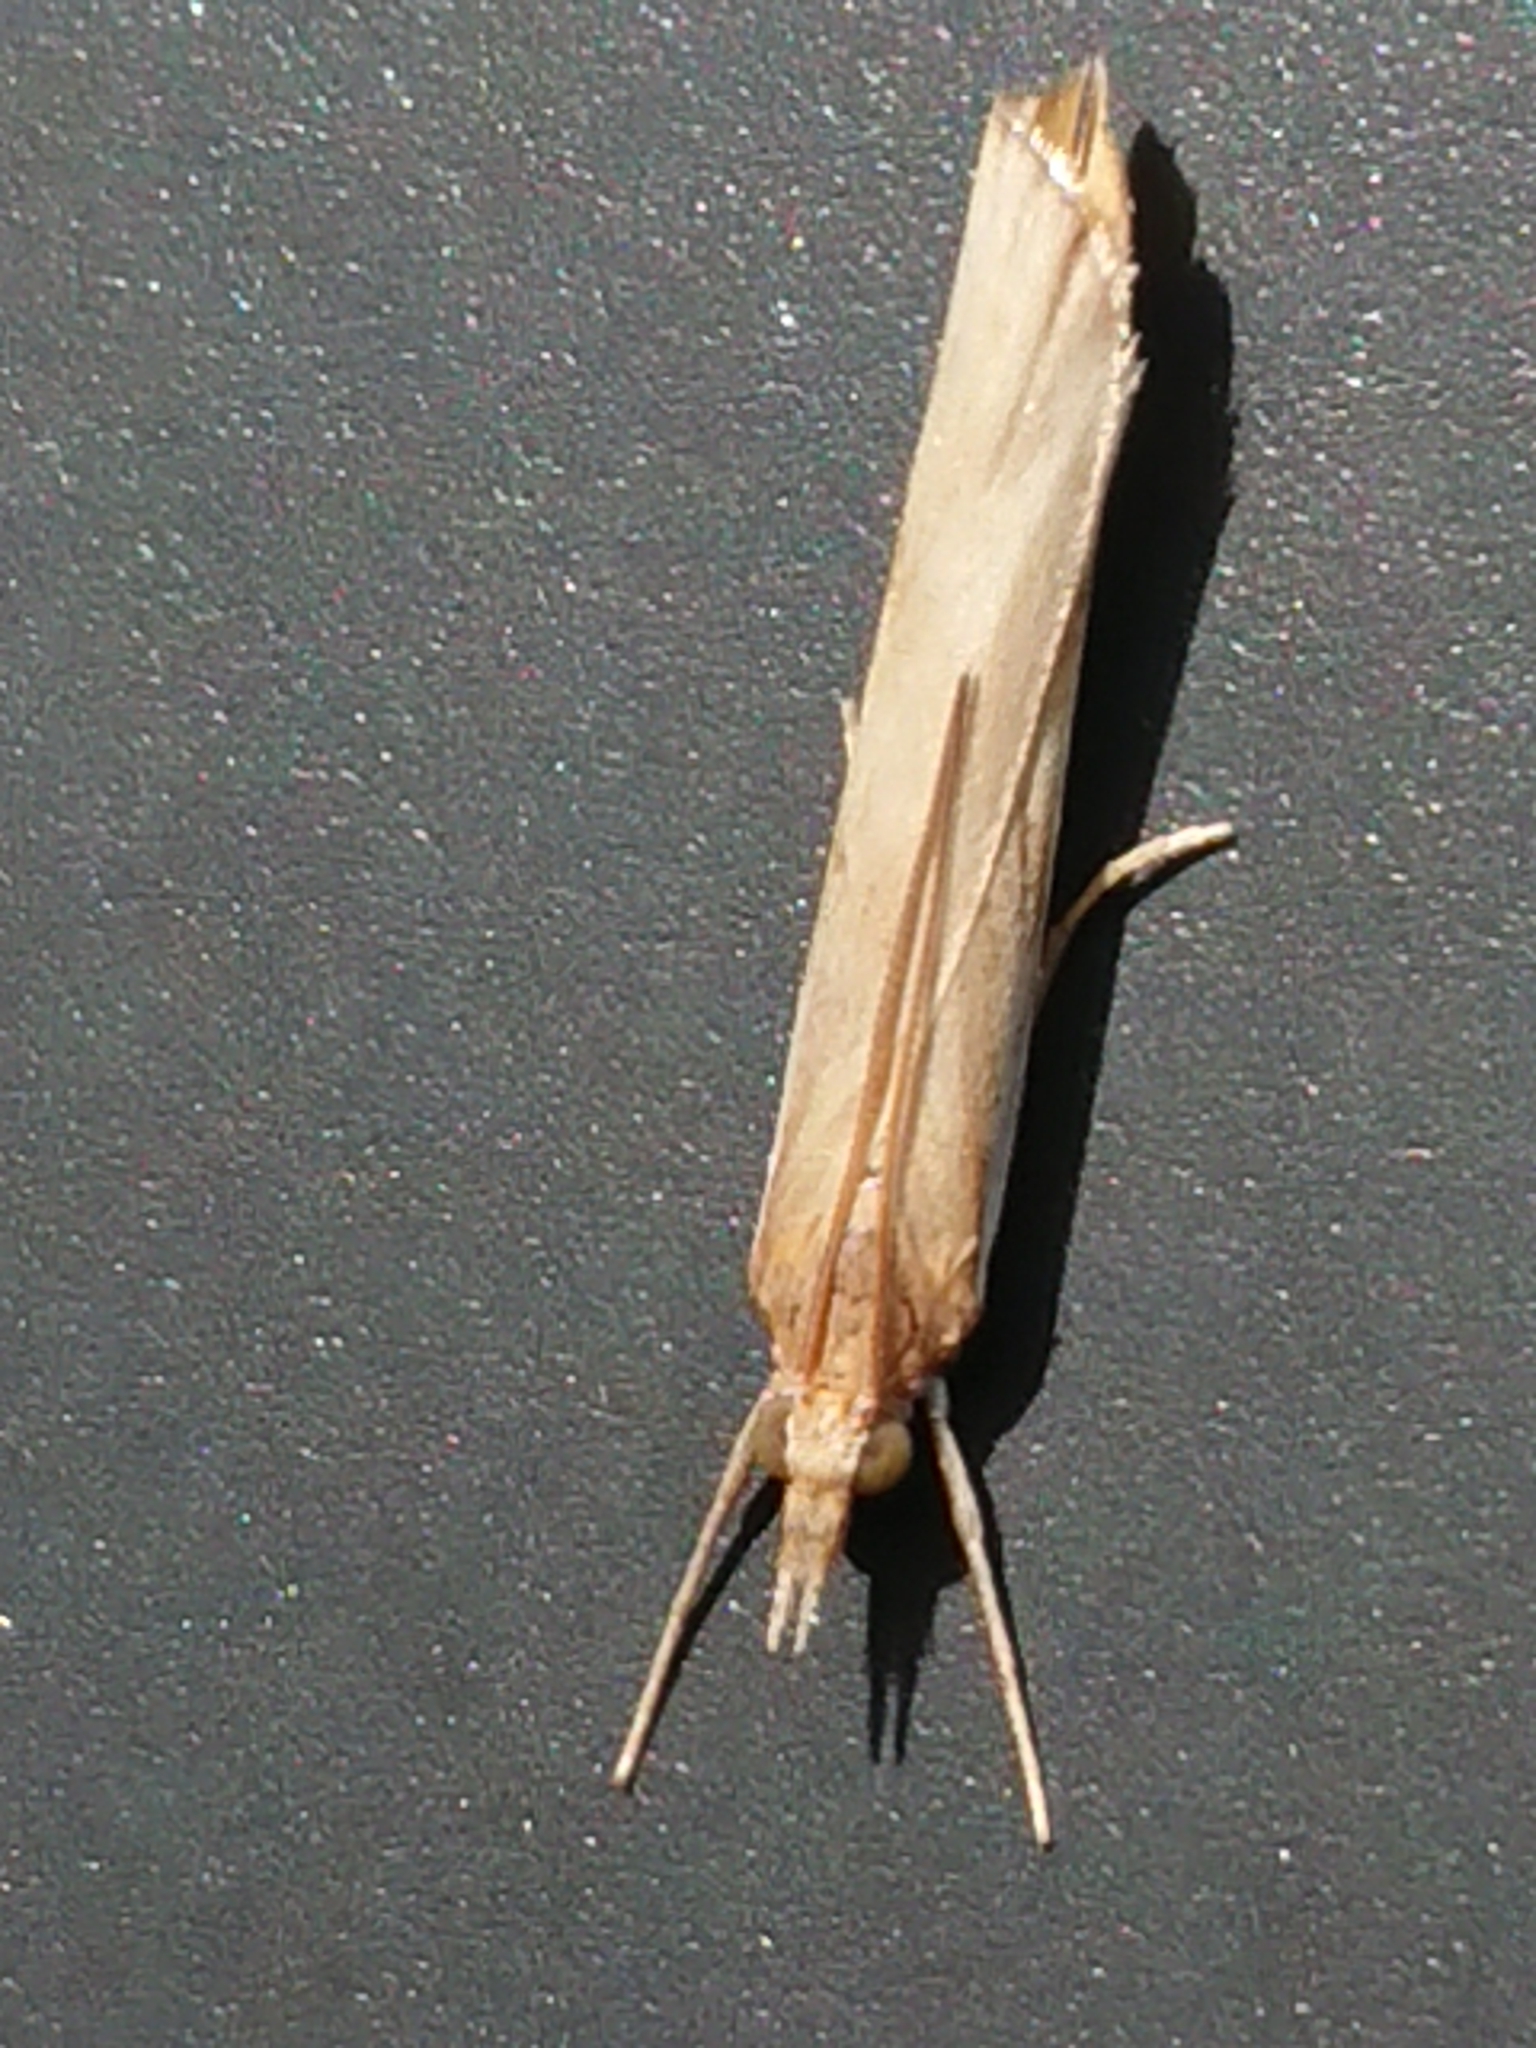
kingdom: Animalia
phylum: Arthropoda
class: Insecta
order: Lepidoptera
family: Crambidae
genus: Orocrambus
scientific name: Orocrambus flexuosellus
